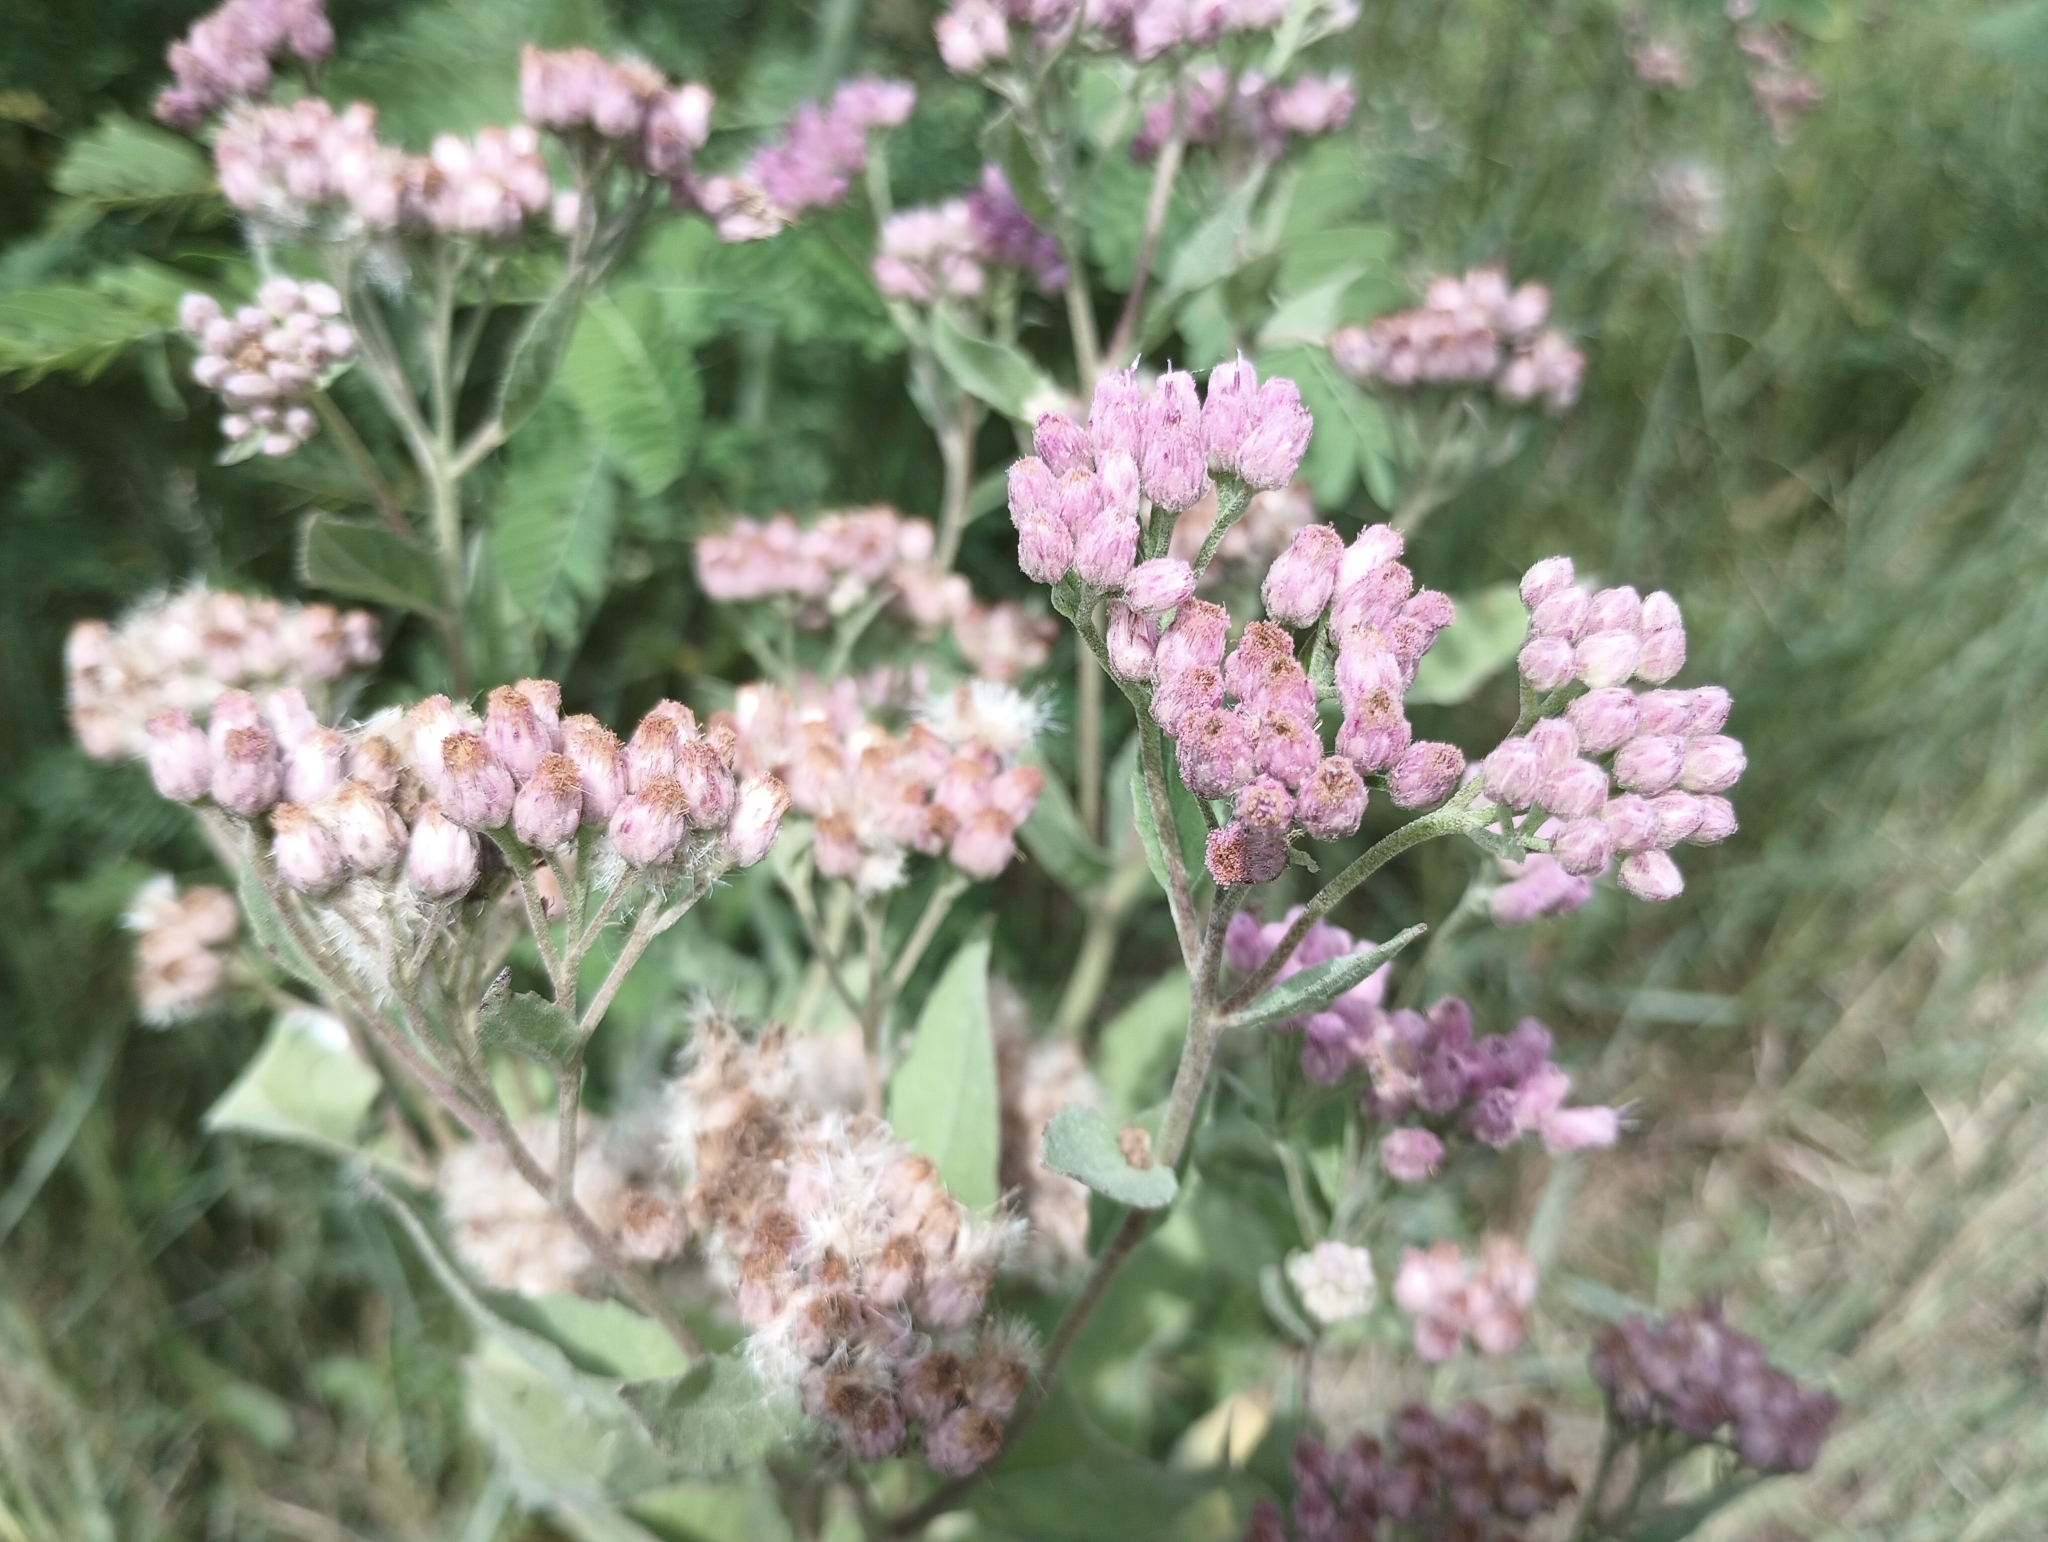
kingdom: Plantae
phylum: Tracheophyta
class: Magnoliopsida
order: Asterales
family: Asteraceae
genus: Pluchea
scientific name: Pluchea odorata
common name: Saltmarsh fleabane
